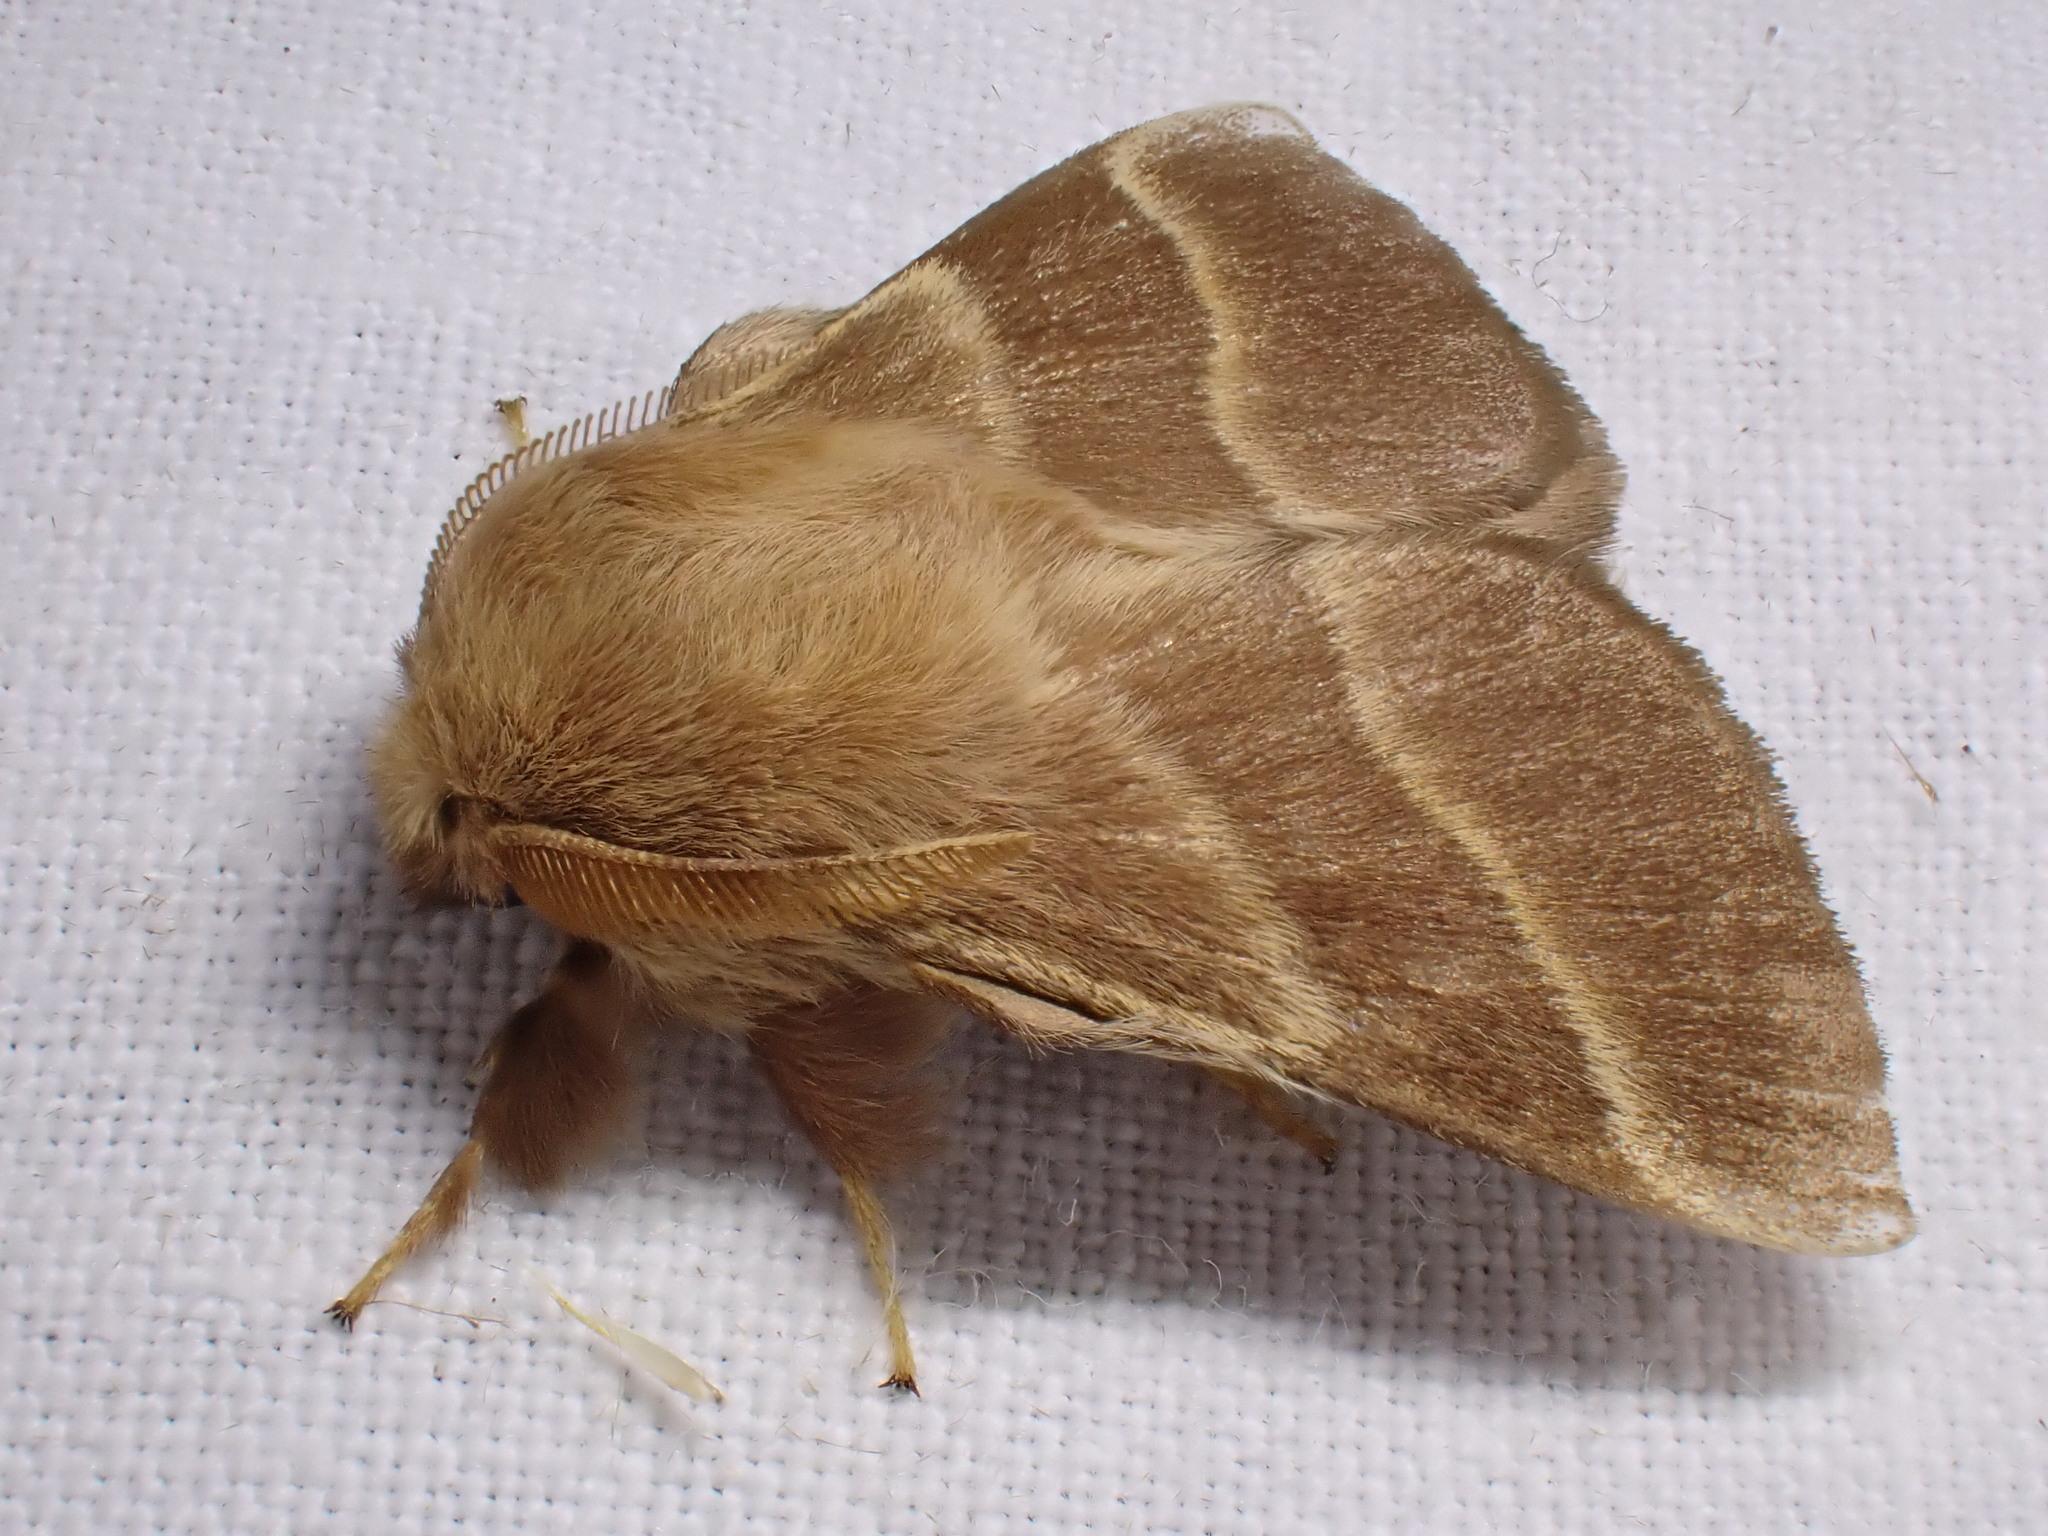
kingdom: Animalia
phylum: Arthropoda
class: Insecta
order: Lepidoptera
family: Lasiocampidae
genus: Malacosoma
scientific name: Malacosoma neustria
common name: The lackey
